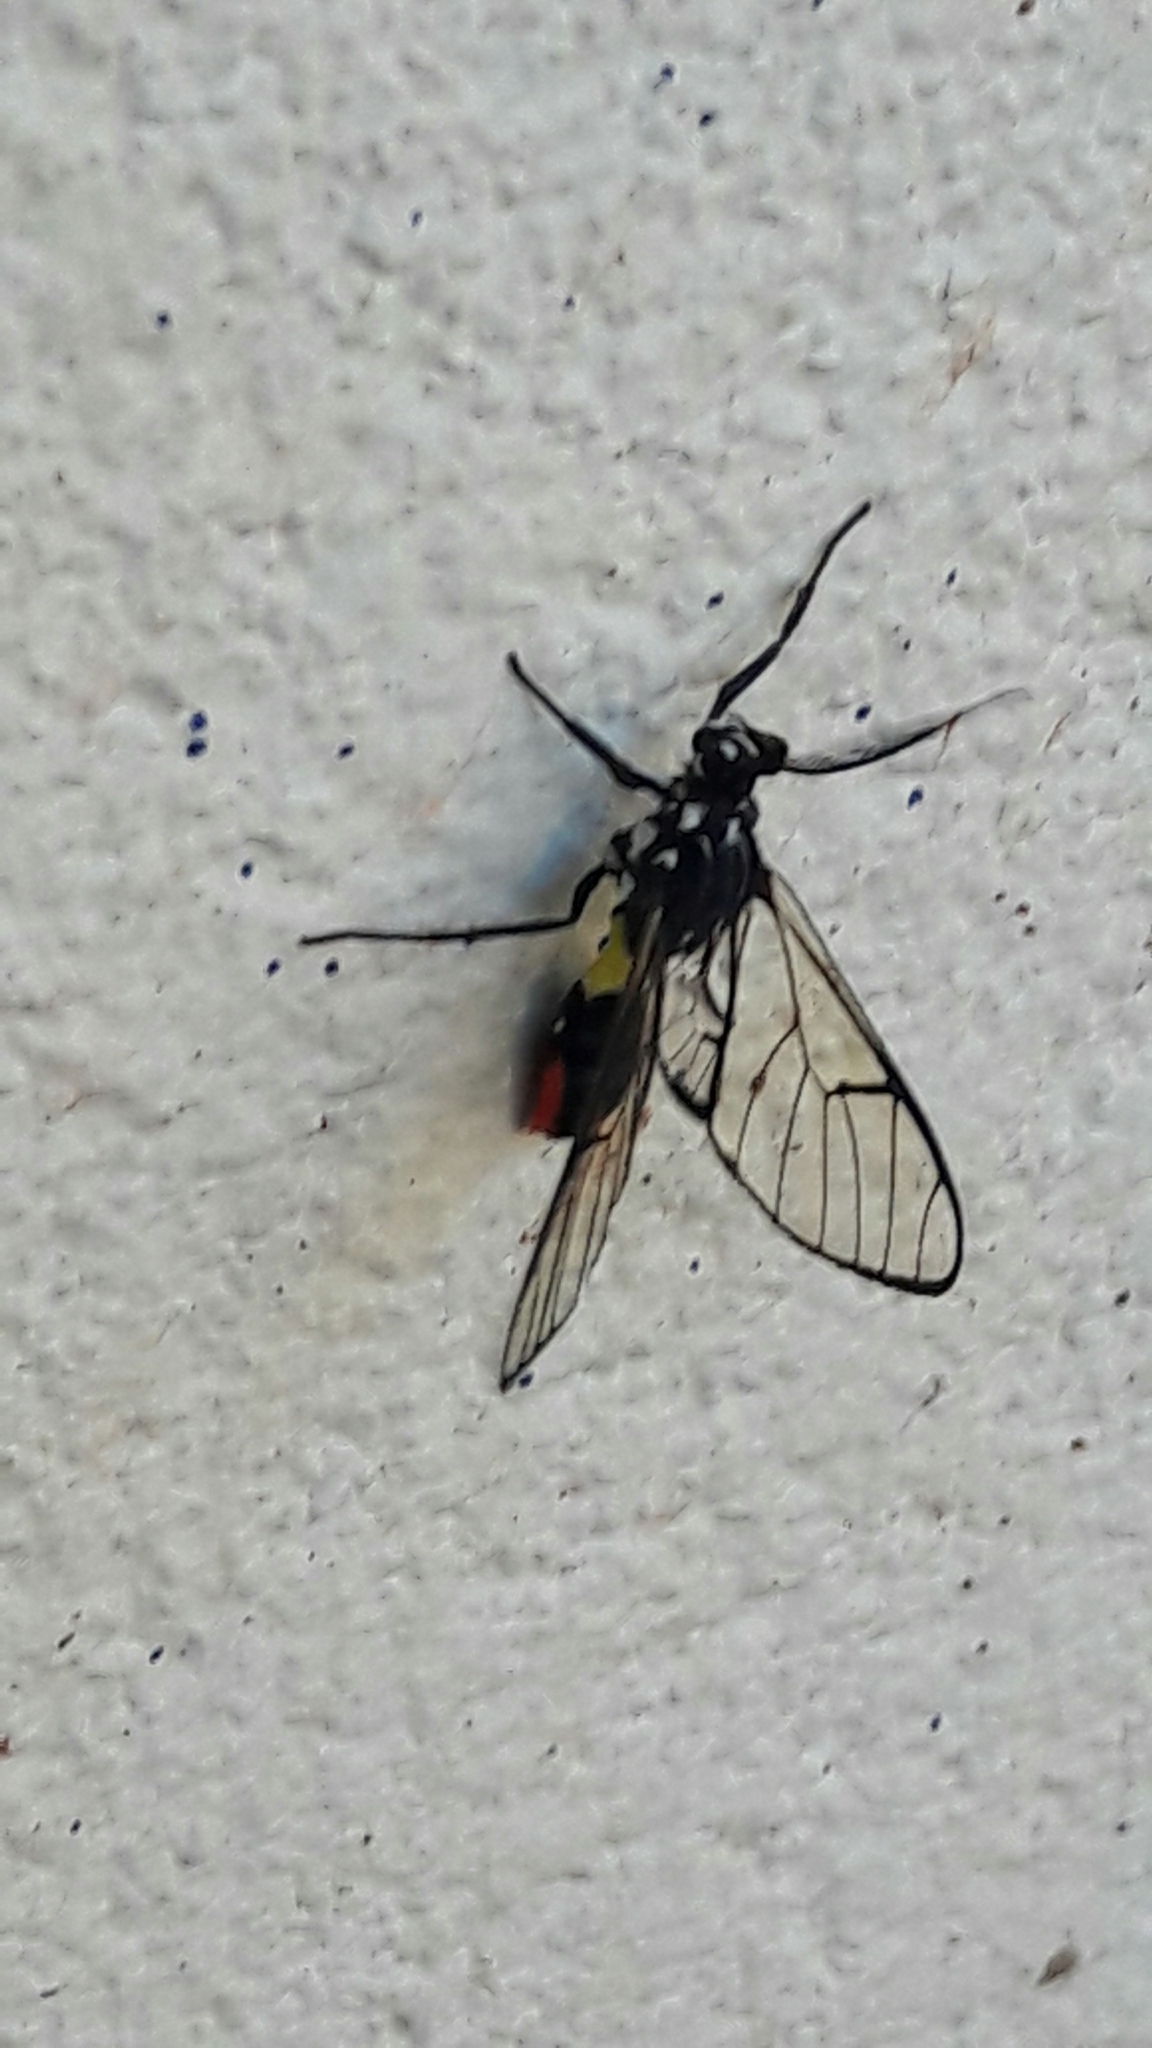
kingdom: Animalia
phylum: Arthropoda
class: Insecta
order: Lepidoptera
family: Erebidae
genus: Argyroeides
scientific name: Argyroeides ophion
